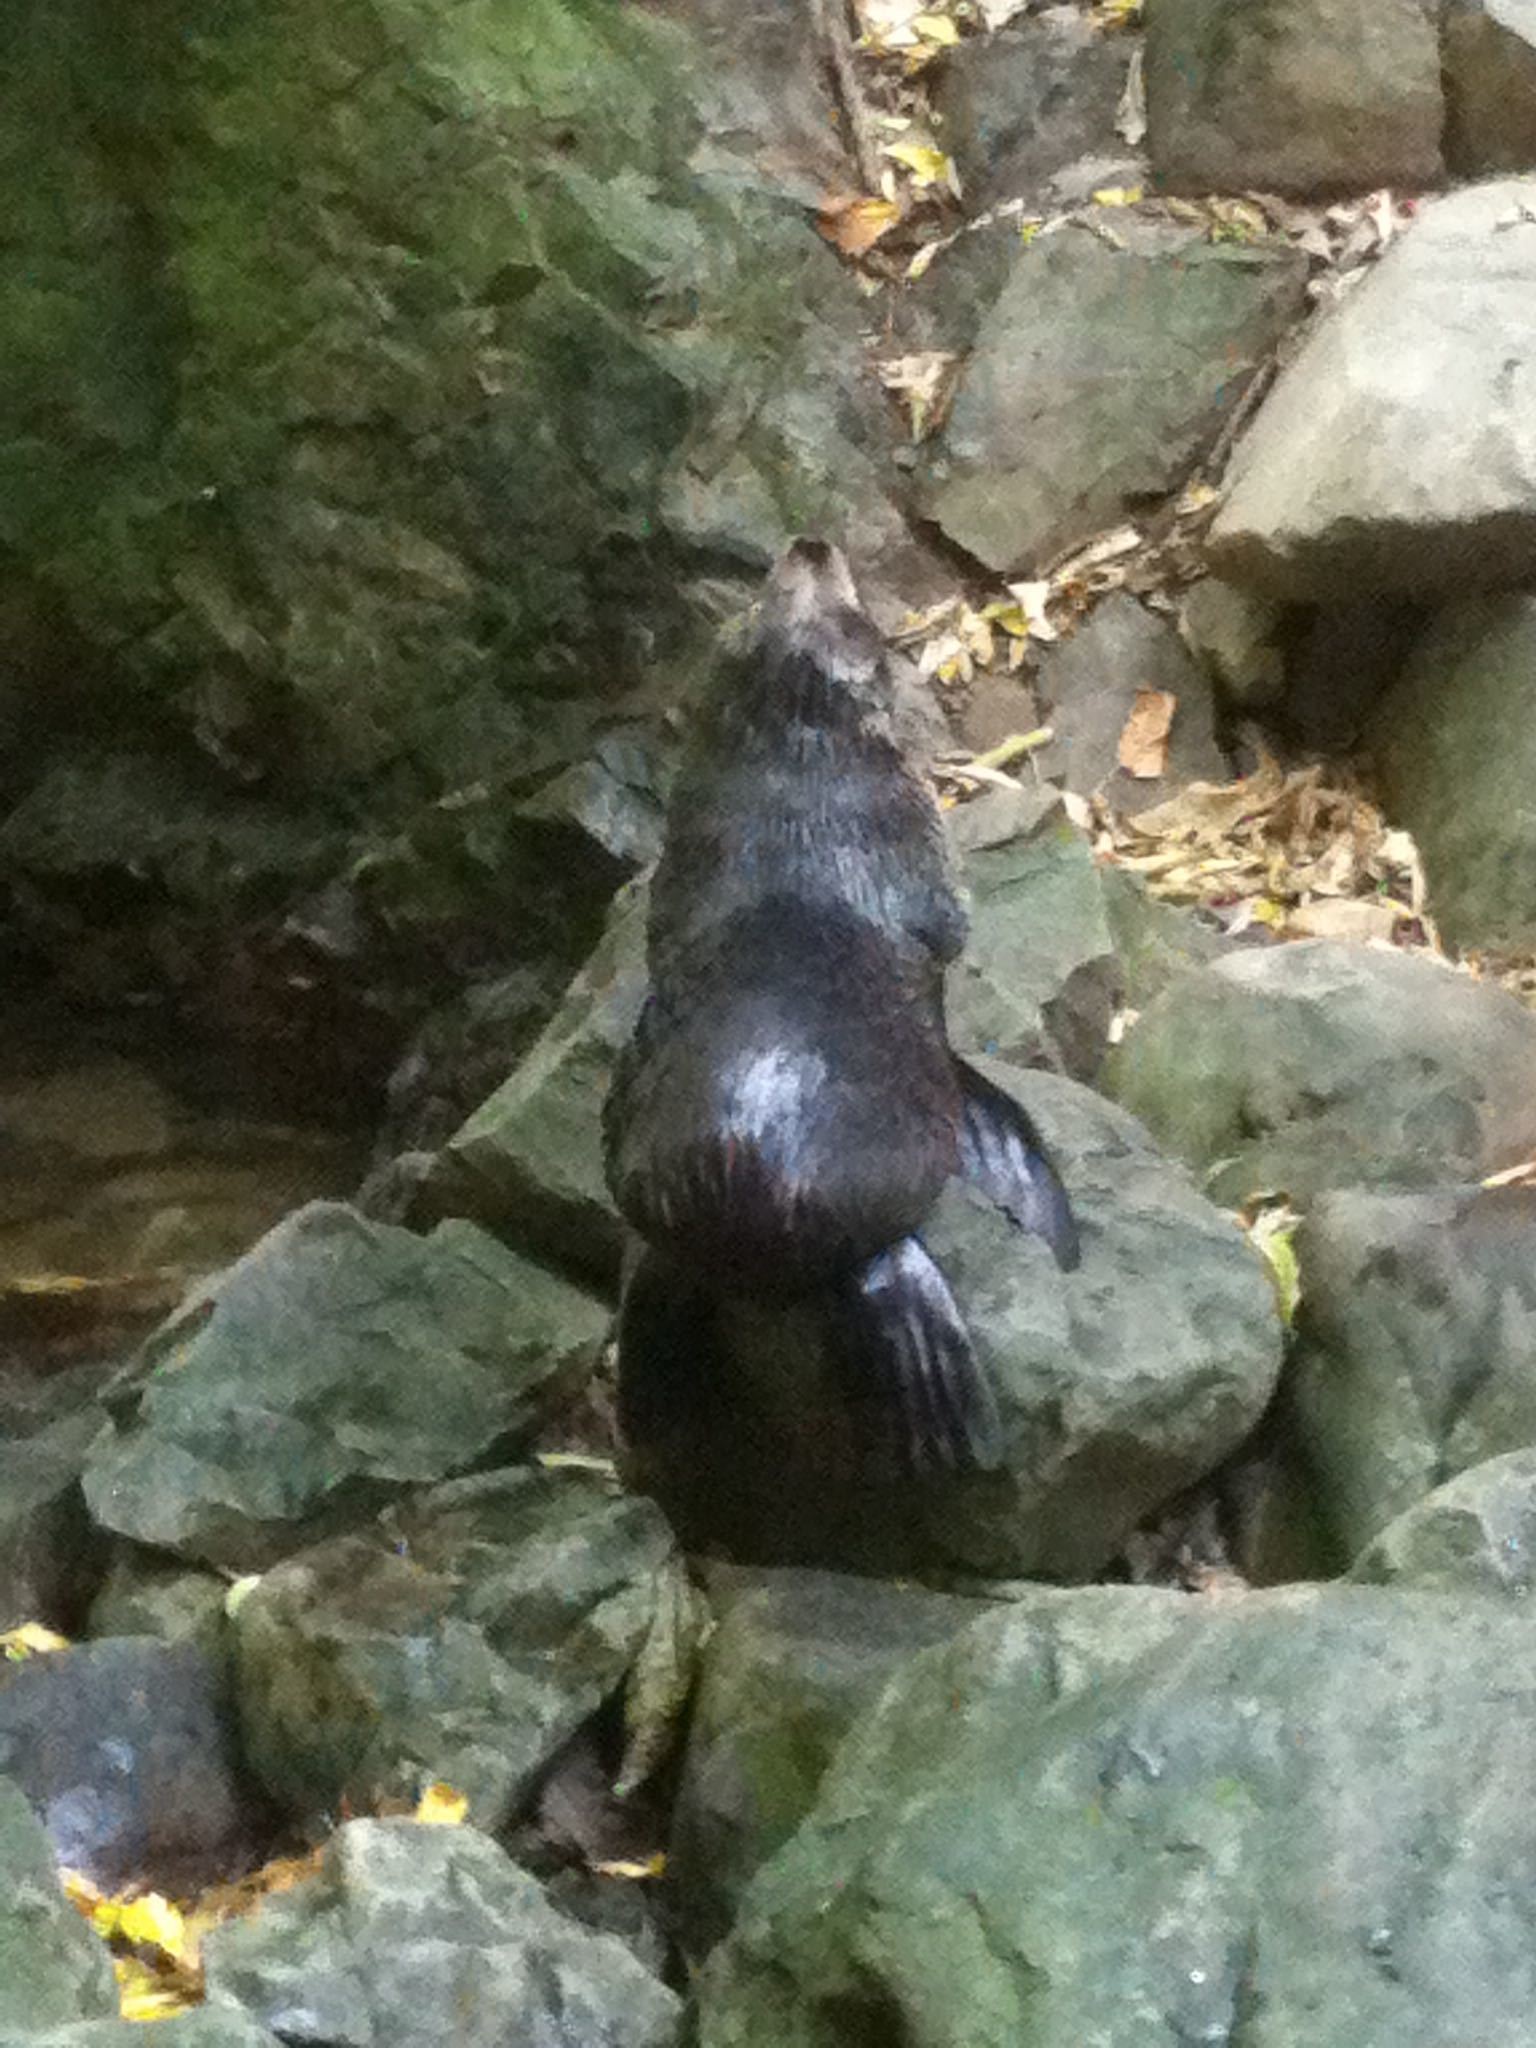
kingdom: Animalia
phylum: Chordata
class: Mammalia
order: Carnivora
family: Otariidae
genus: Arctocephalus
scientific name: Arctocephalus forsteri
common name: New zealand fur seal
